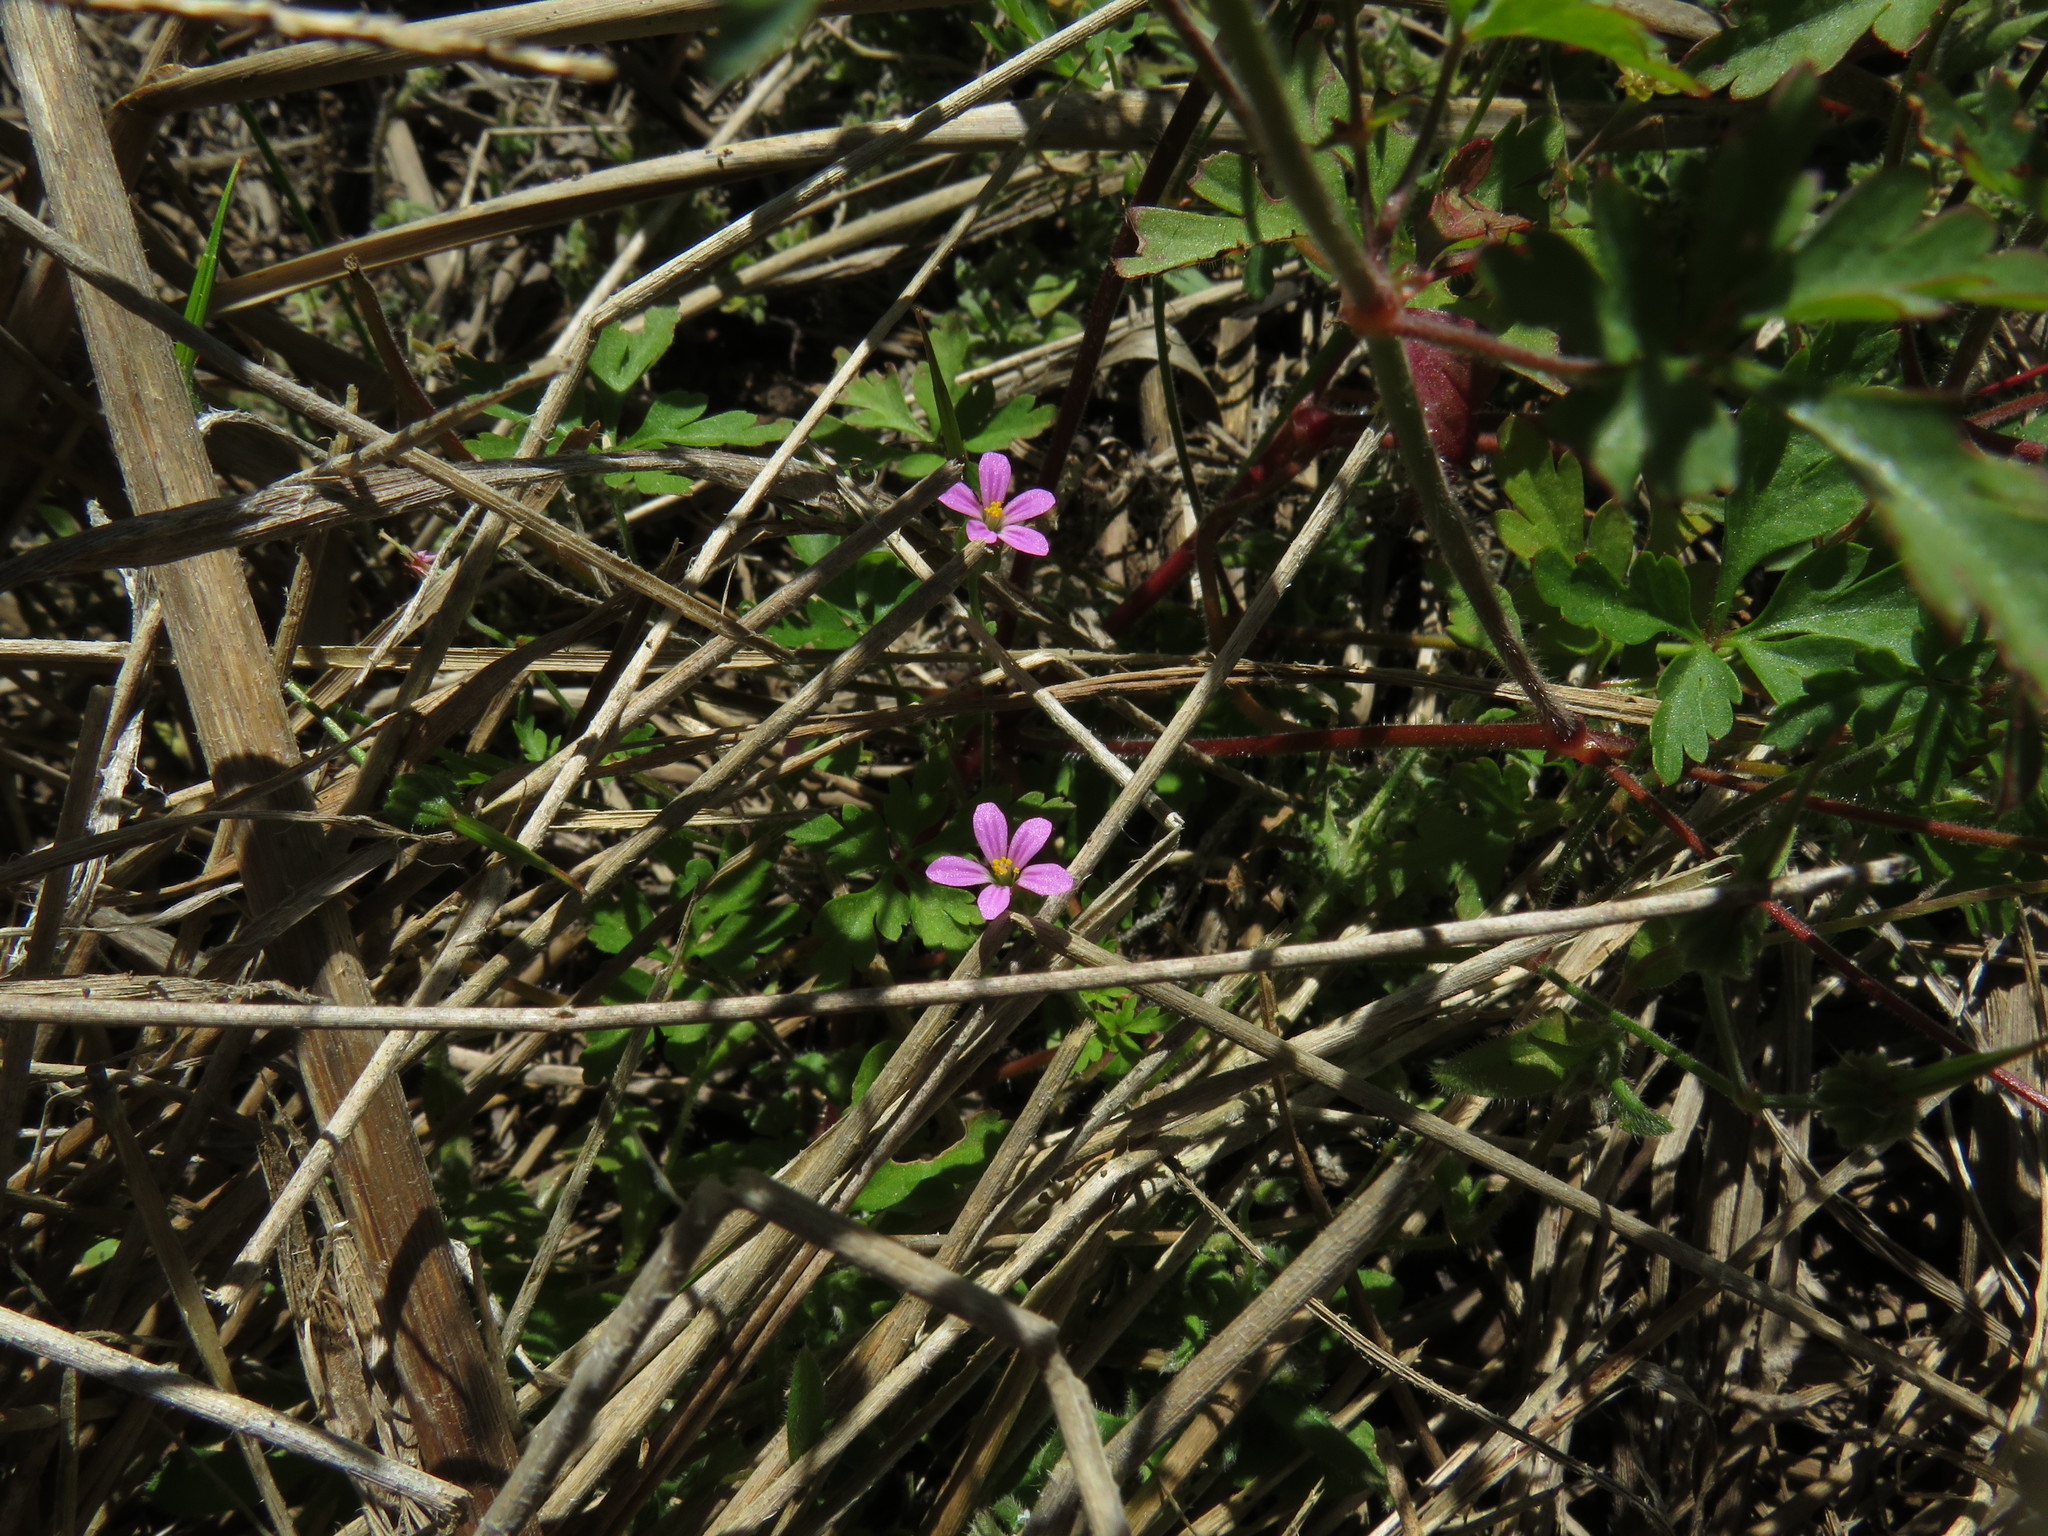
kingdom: Plantae
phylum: Tracheophyta
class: Magnoliopsida
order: Geraniales
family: Geraniaceae
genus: Geranium
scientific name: Geranium purpureum
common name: Little-robin
